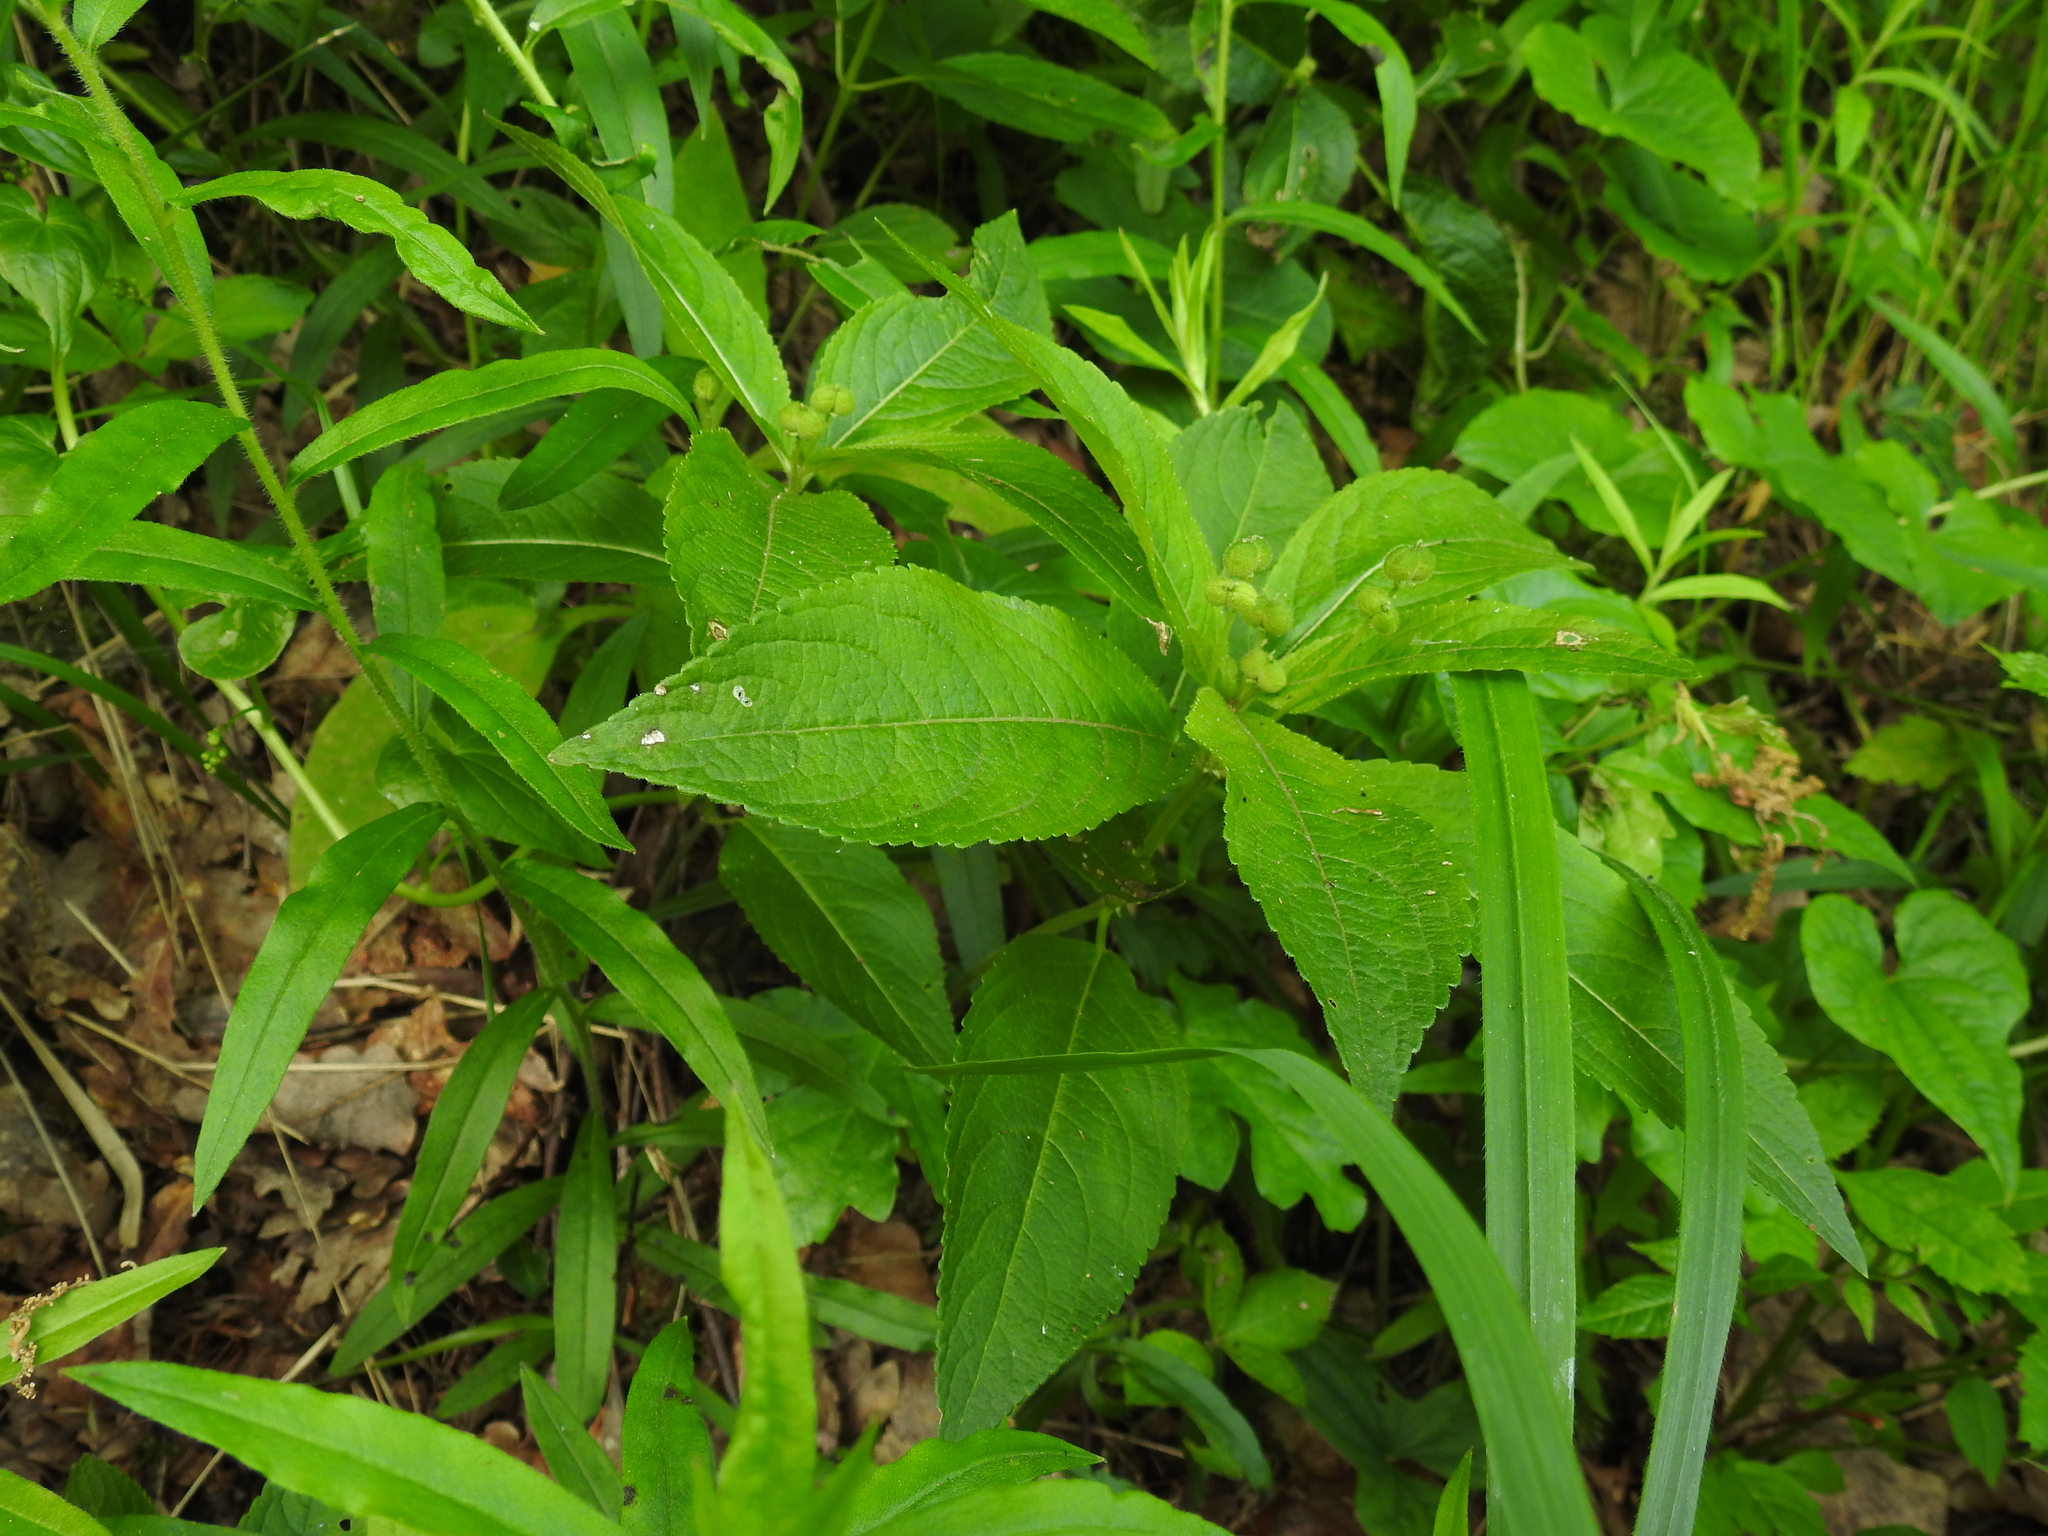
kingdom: Plantae
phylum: Tracheophyta
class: Magnoliopsida
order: Malpighiales
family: Euphorbiaceae
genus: Mercurialis
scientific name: Mercurialis perennis
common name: Dog mercury
